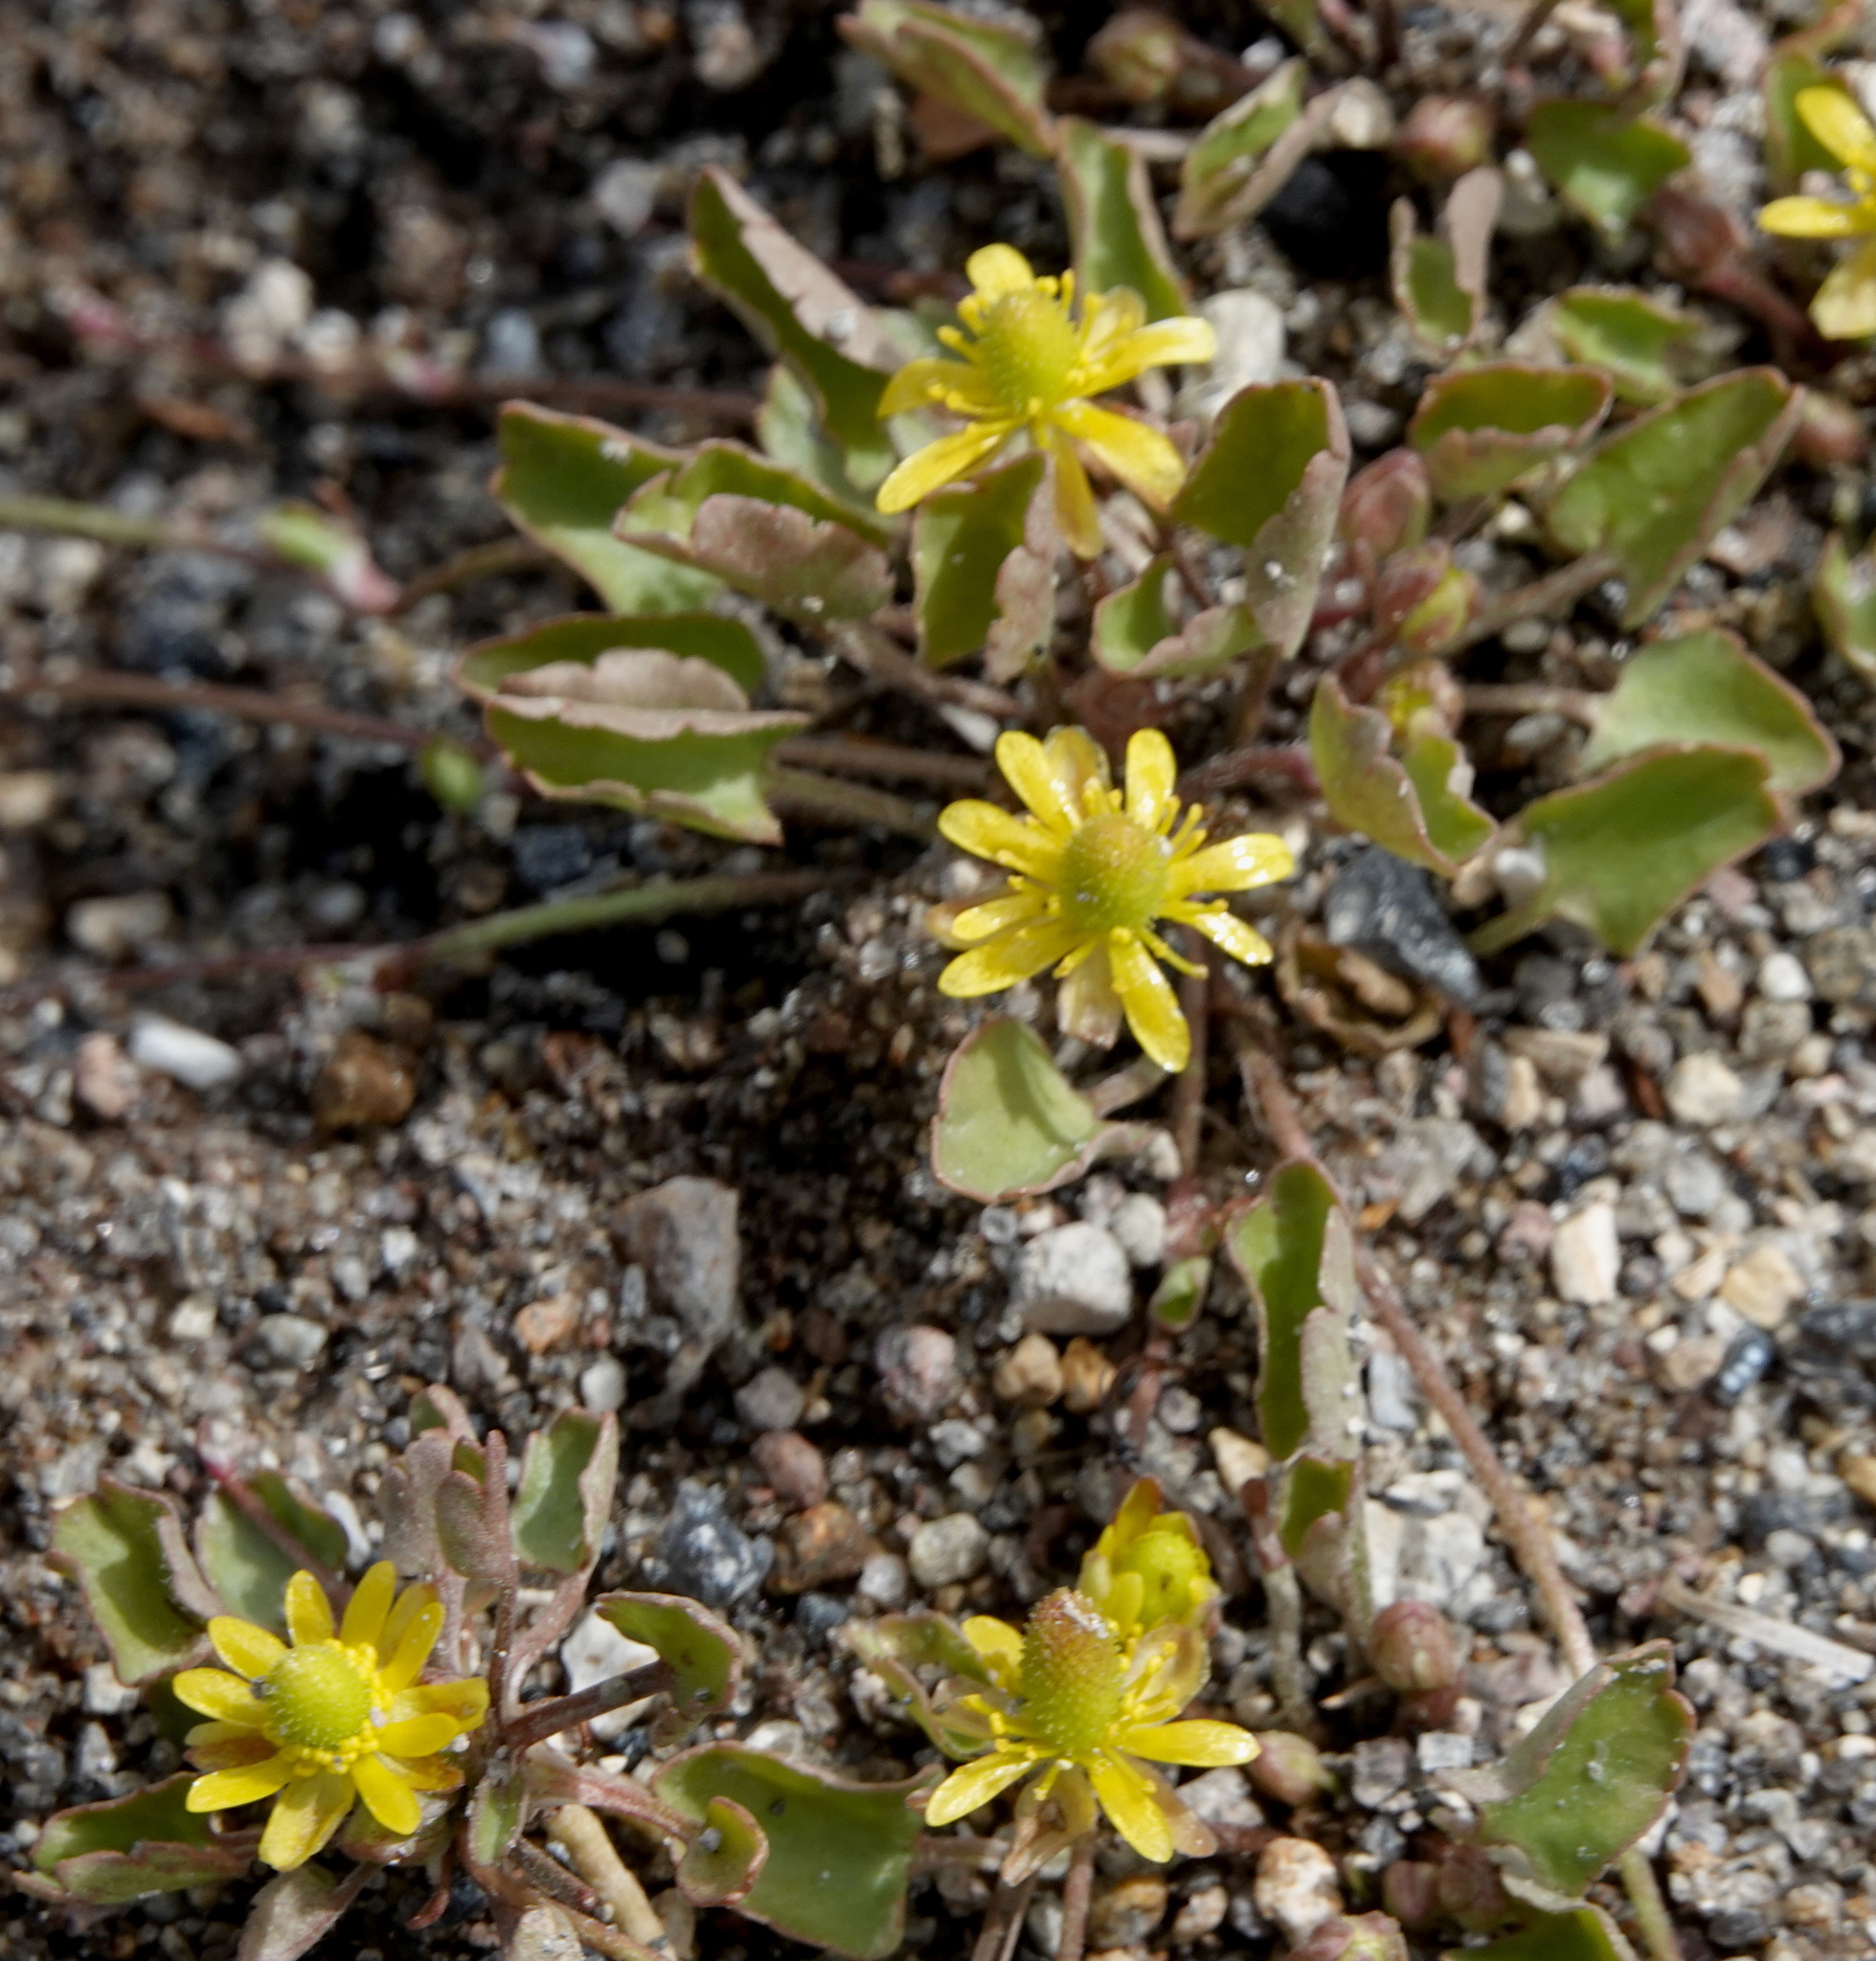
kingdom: Plantae
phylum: Tracheophyta
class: Magnoliopsida
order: Ranunculales
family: Ranunculaceae
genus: Halerpestes
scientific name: Halerpestes cymbalaria
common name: Seaside crowfoot
